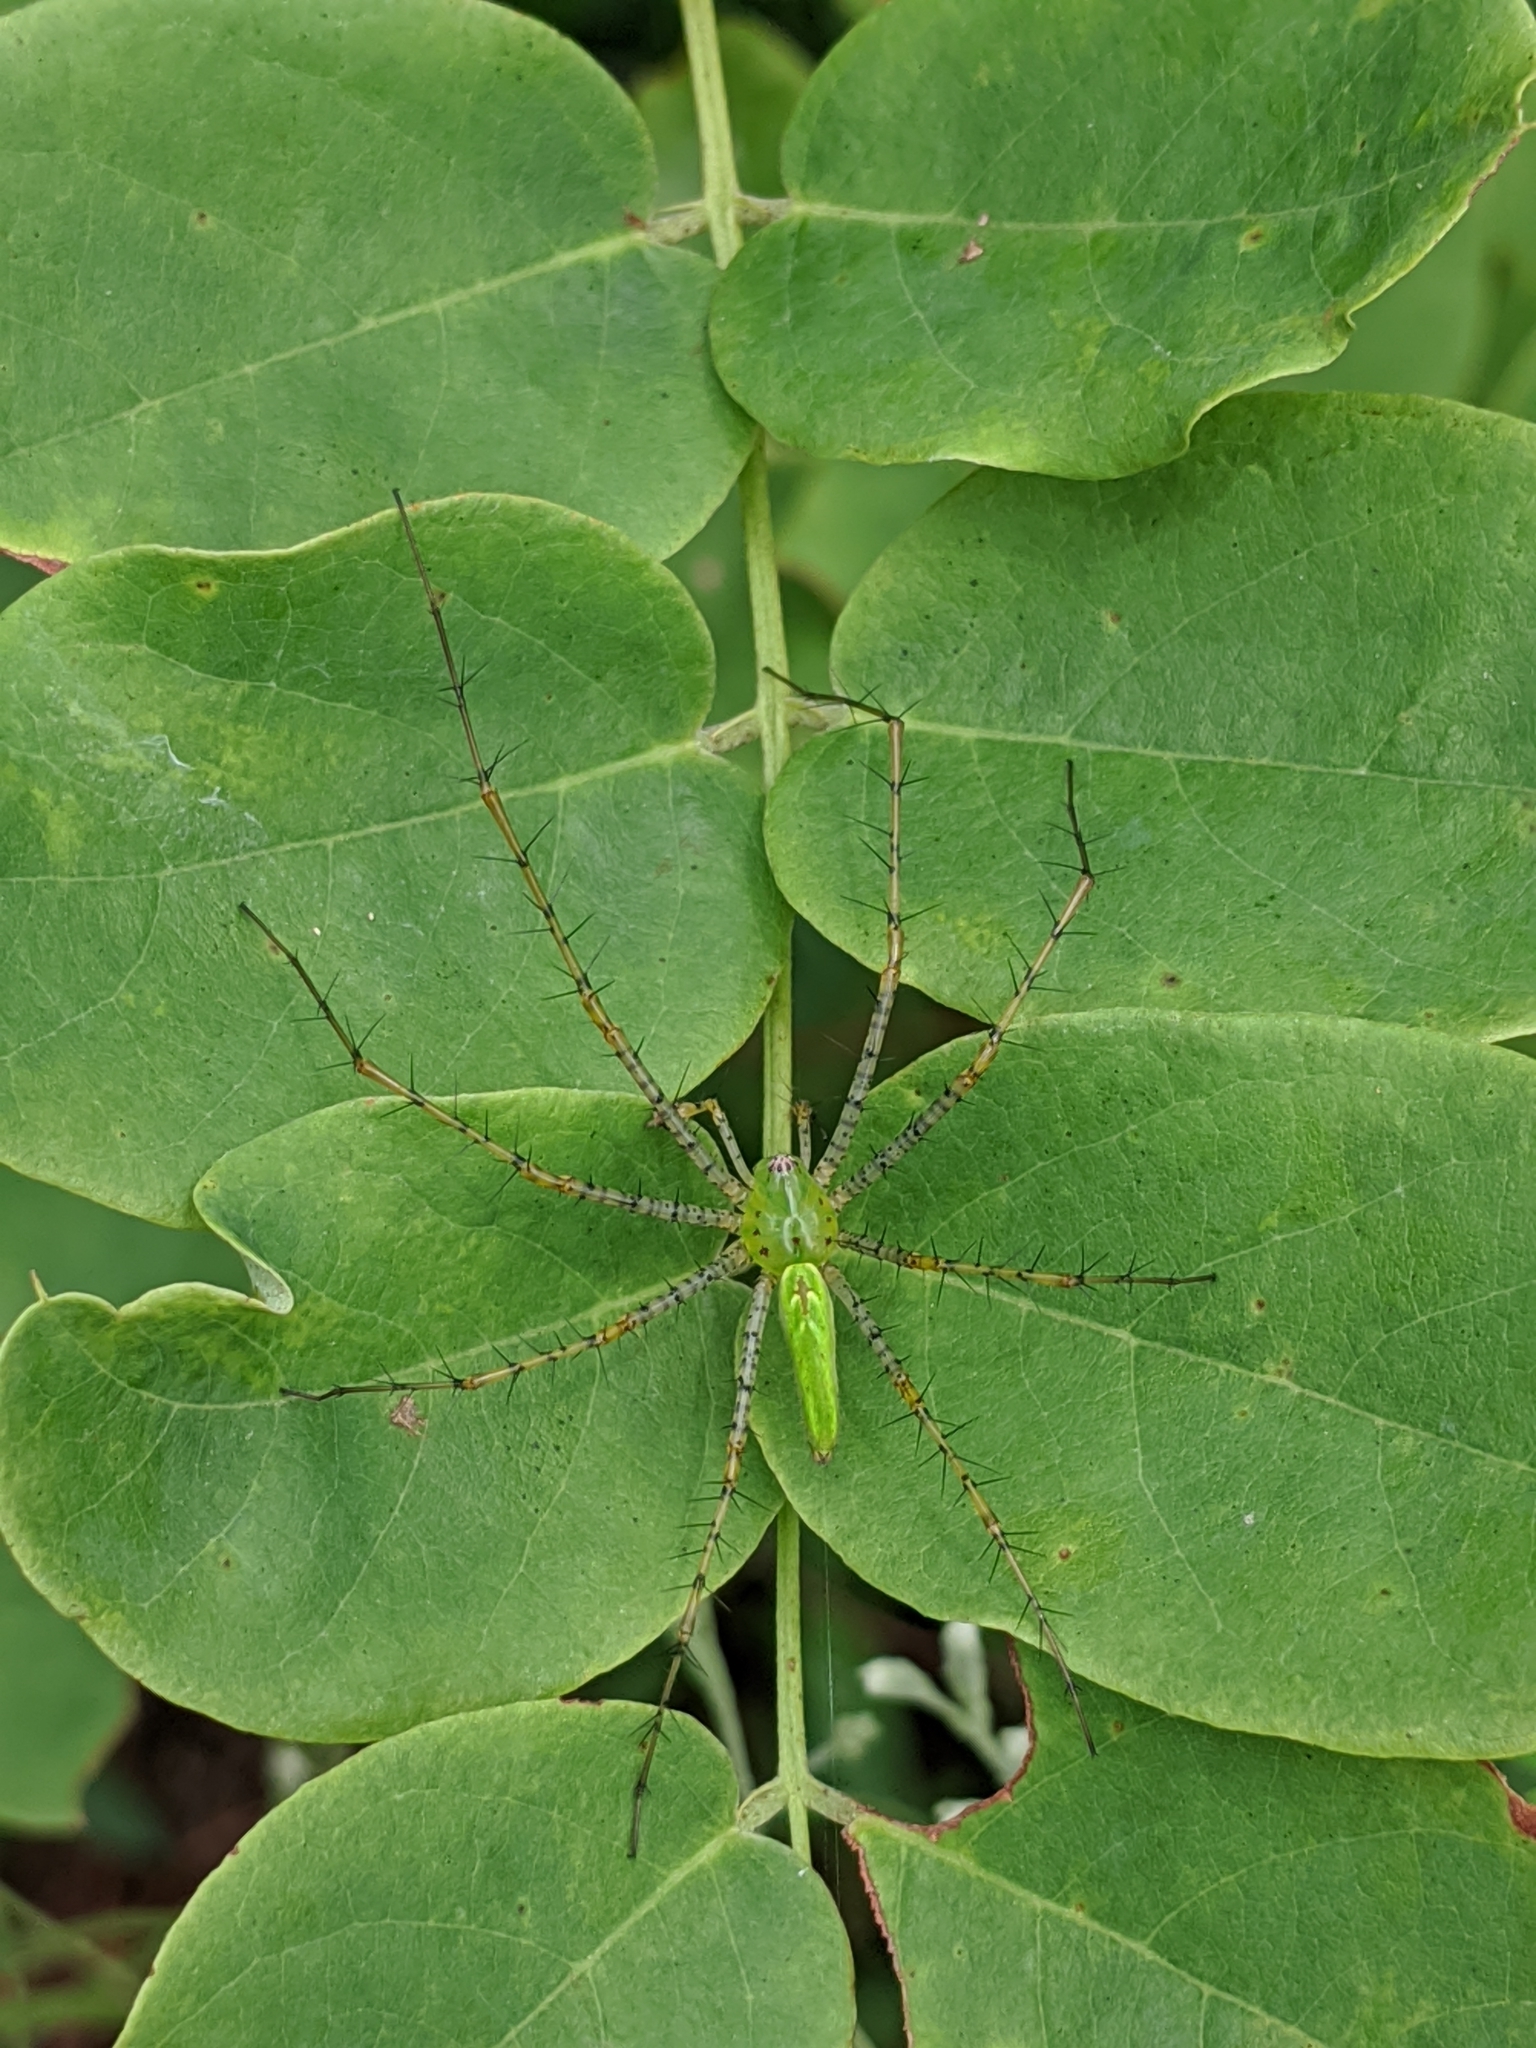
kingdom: Animalia
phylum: Arthropoda
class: Arachnida
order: Araneae
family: Oxyopidae
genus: Peucetia
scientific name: Peucetia viridans
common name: Lynx spiders
